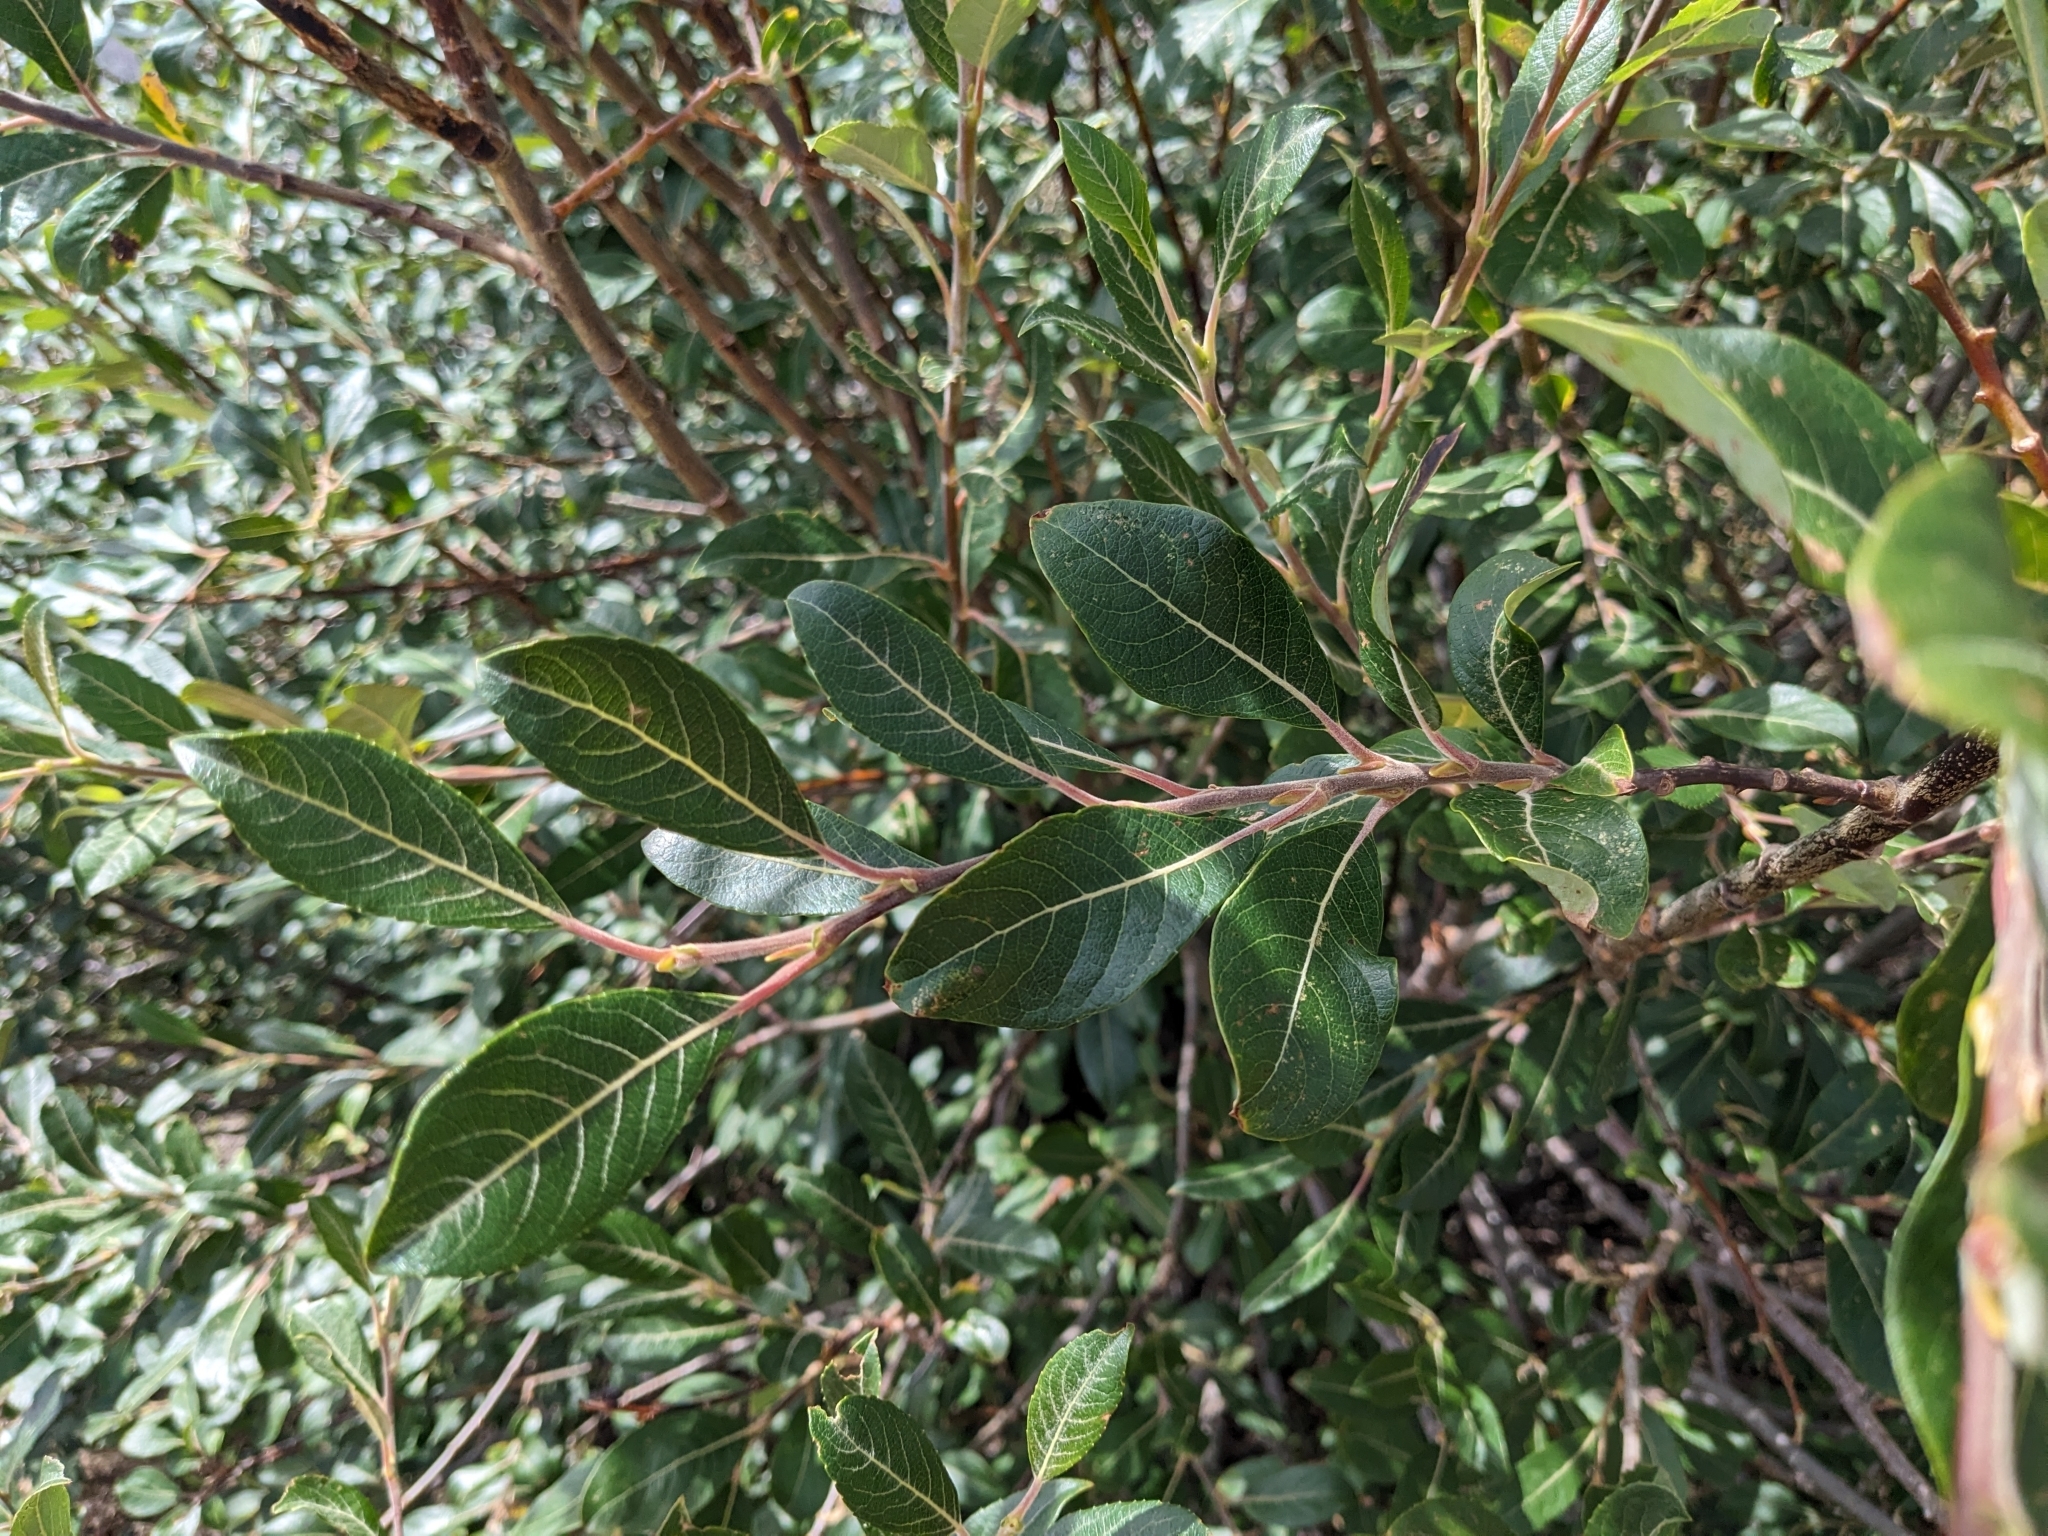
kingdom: Plantae
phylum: Tracheophyta
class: Magnoliopsida
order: Malpighiales
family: Salicaceae
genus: Salix
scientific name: Salix scouleriana
